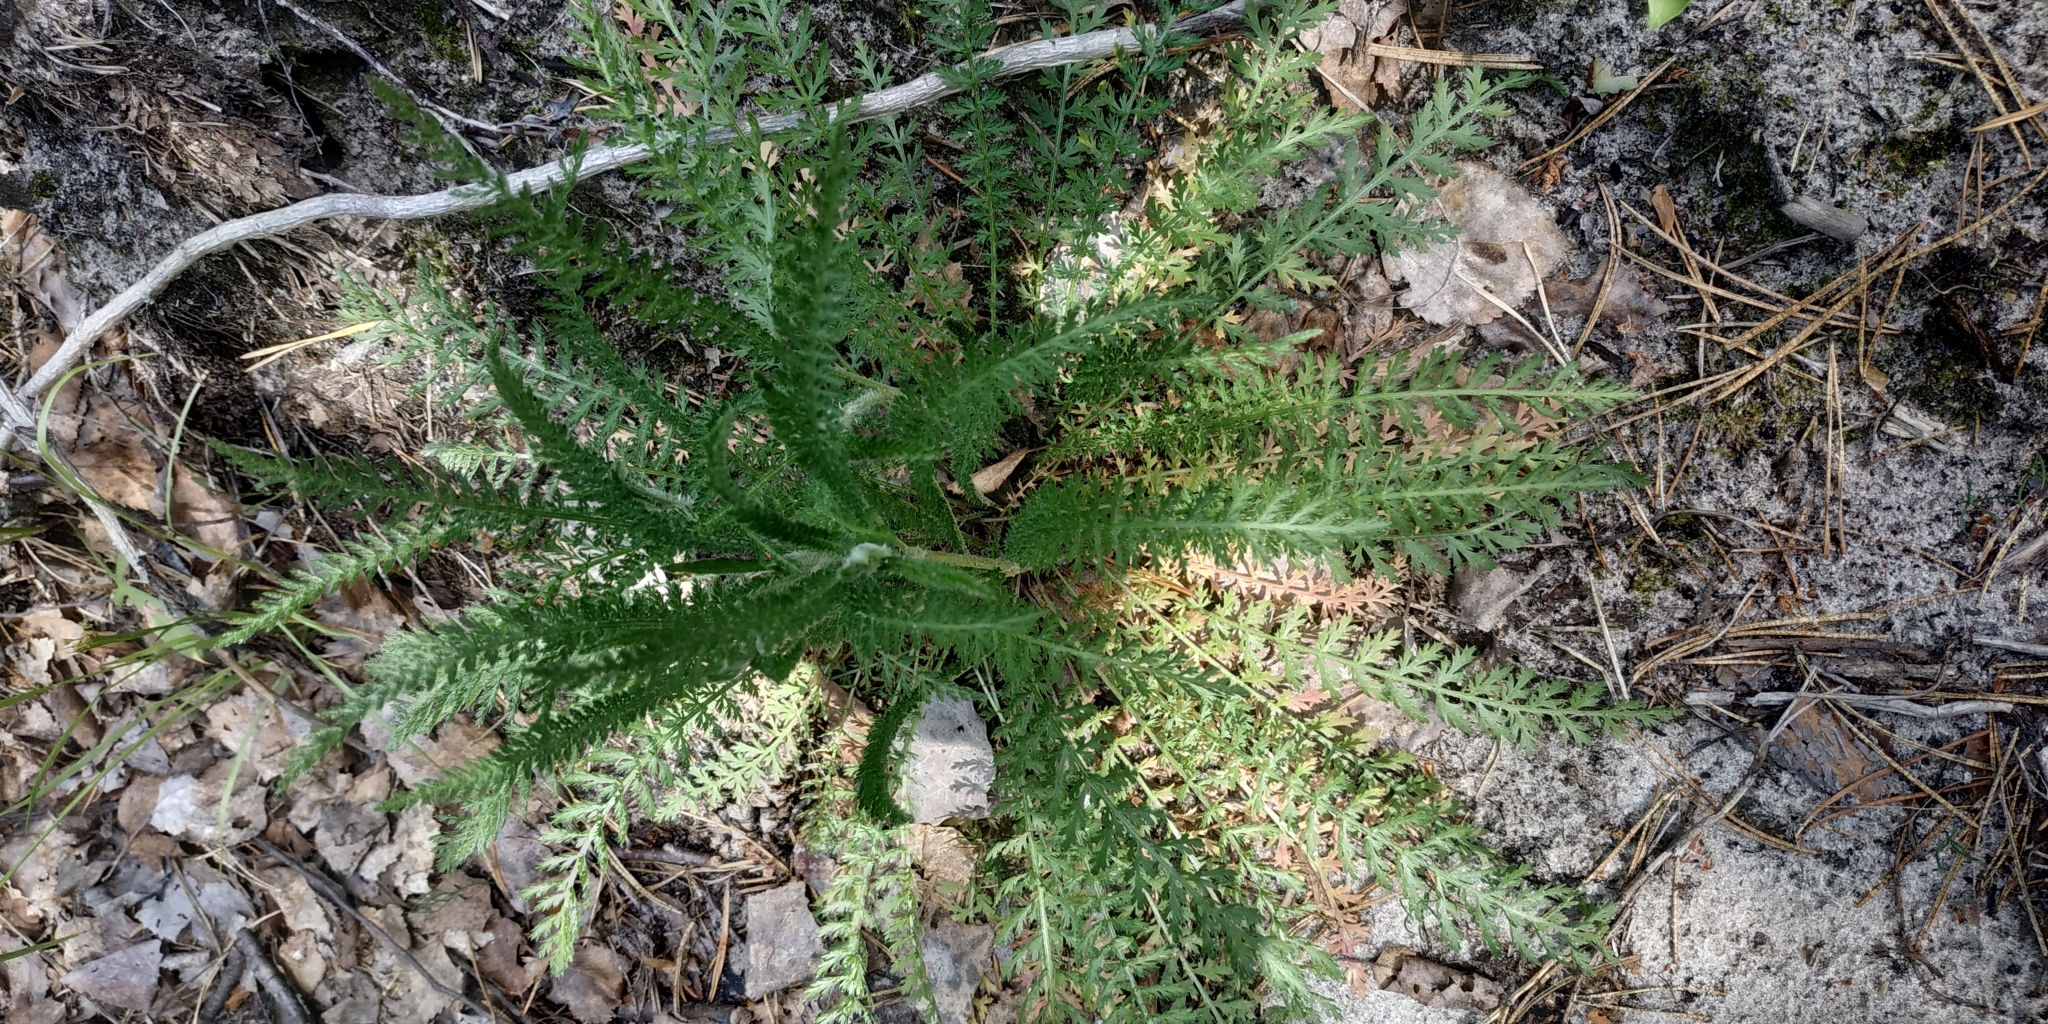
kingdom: Plantae
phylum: Tracheophyta
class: Magnoliopsida
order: Asterales
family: Asteraceae
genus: Achillea
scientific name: Achillea millefolium
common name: Yarrow
